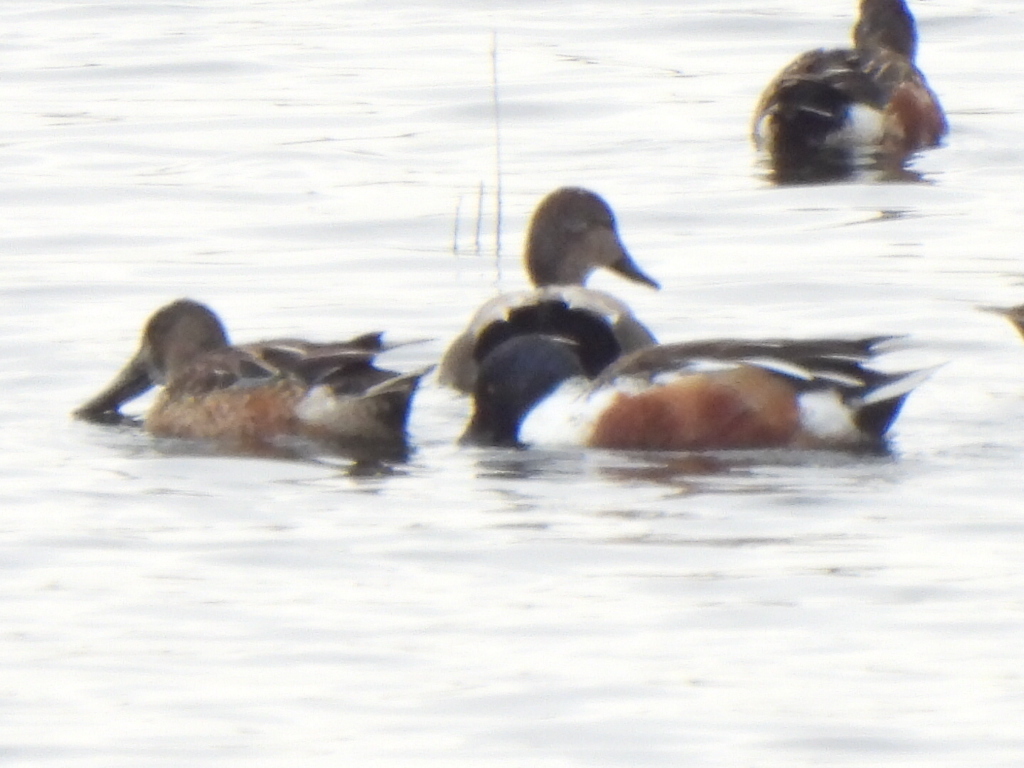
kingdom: Animalia
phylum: Chordata
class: Aves
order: Anseriformes
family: Anatidae
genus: Spatula
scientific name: Spatula clypeata
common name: Northern shoveler
